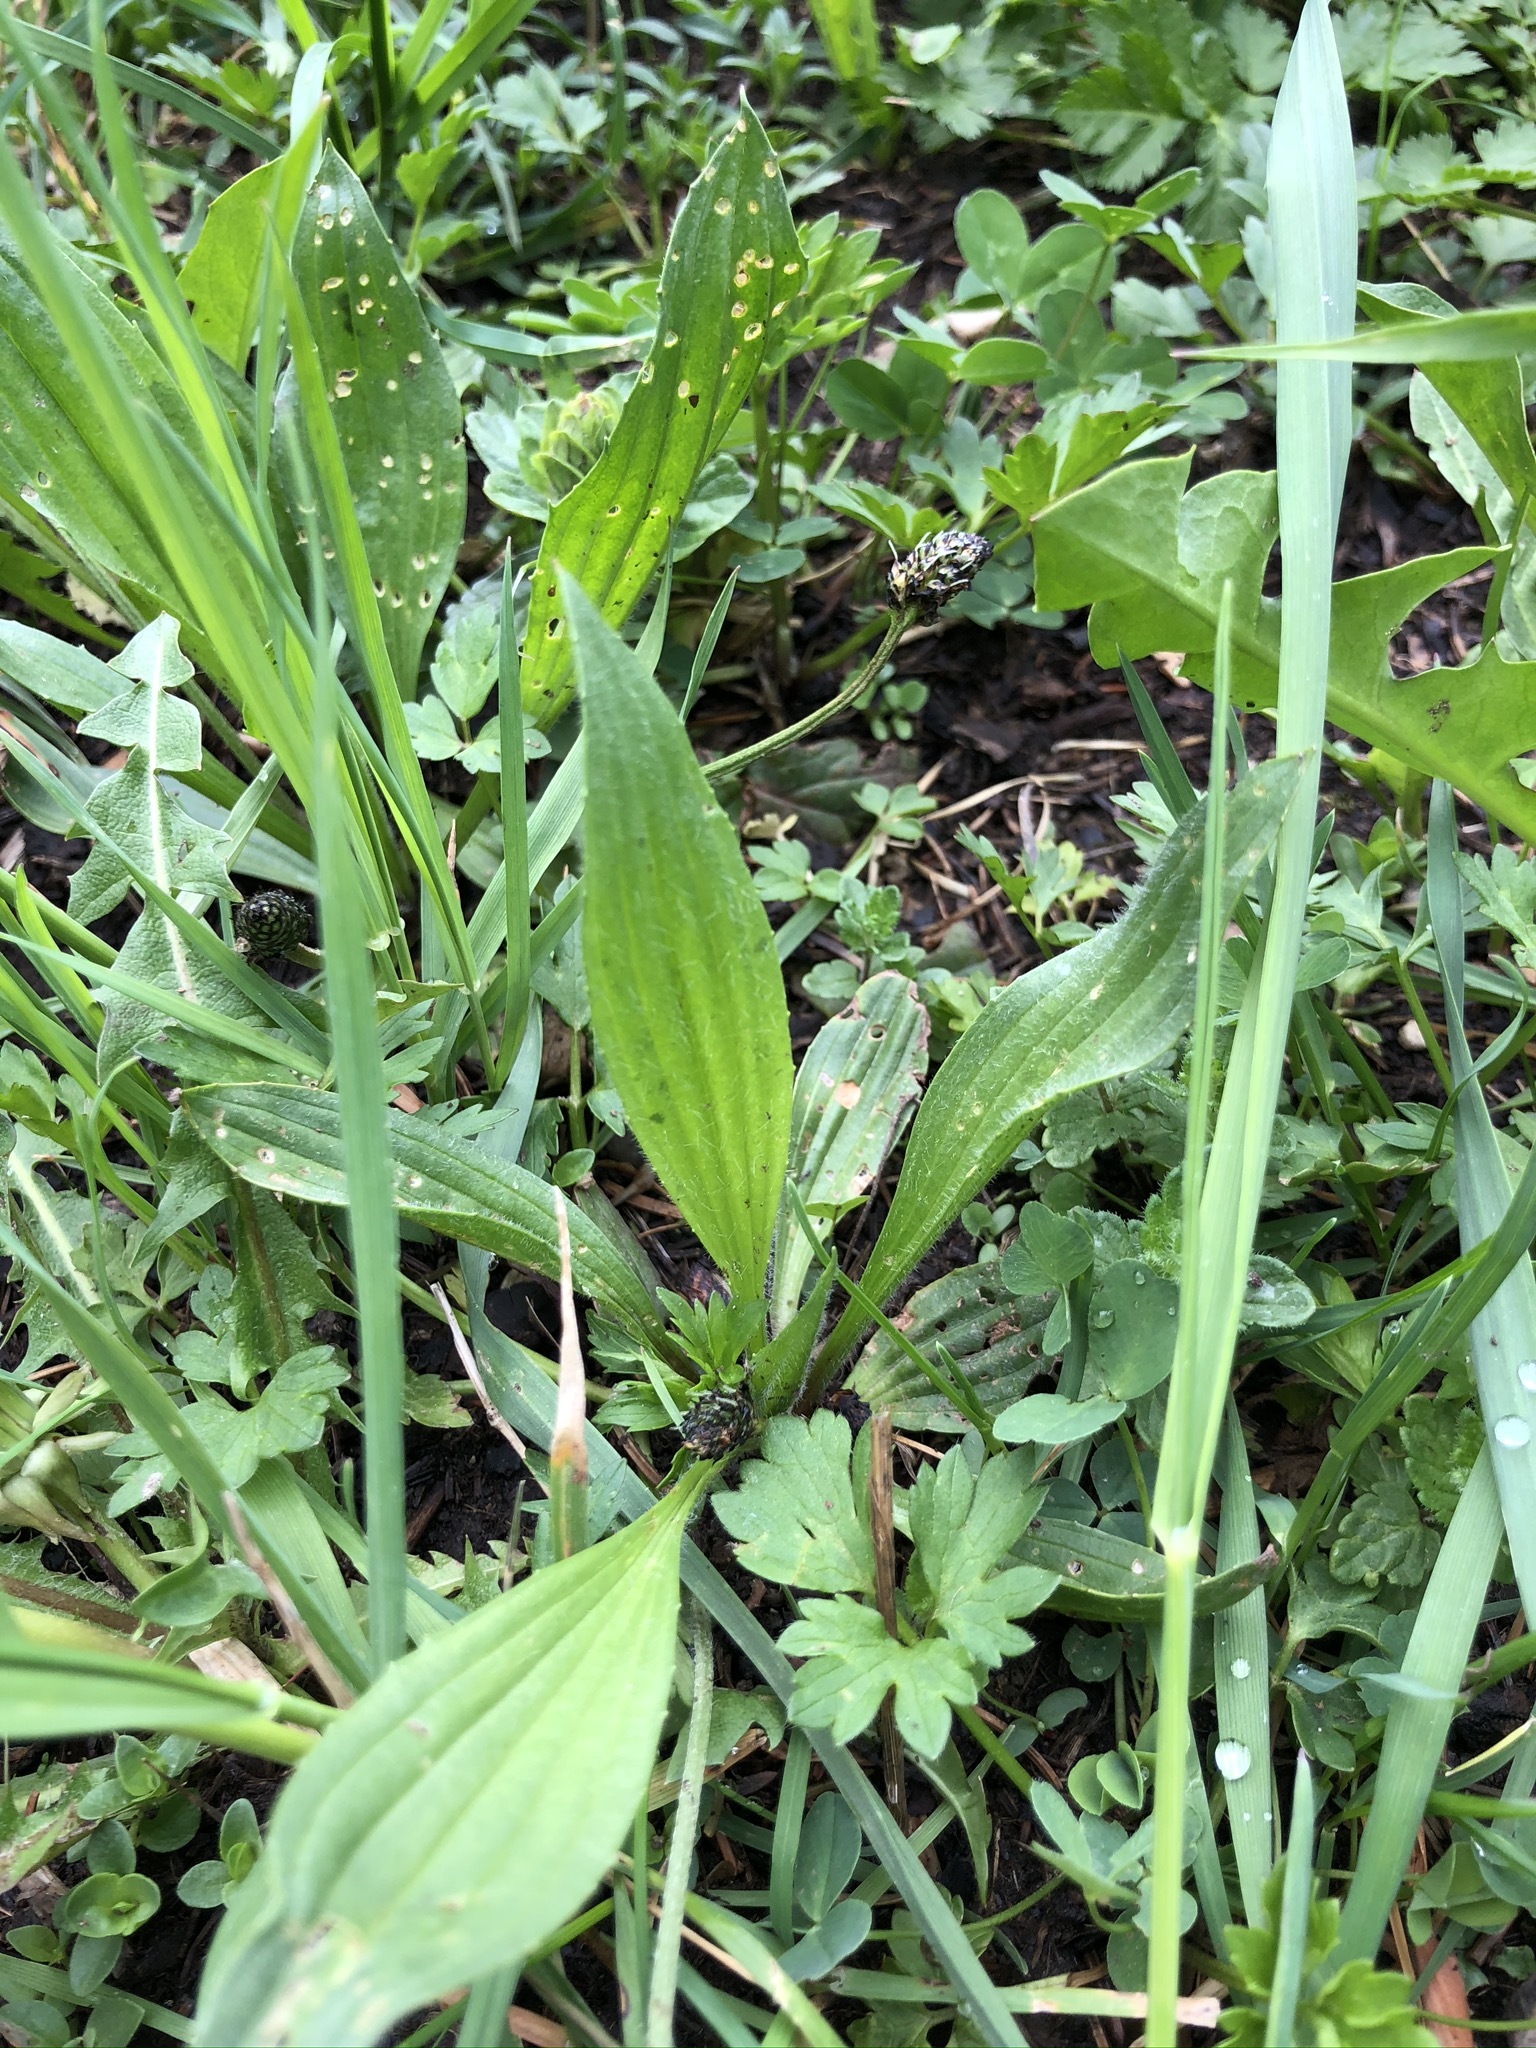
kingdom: Plantae
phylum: Tracheophyta
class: Magnoliopsida
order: Lamiales
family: Plantaginaceae
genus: Plantago
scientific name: Plantago lanceolata
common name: Ribwort plantain
